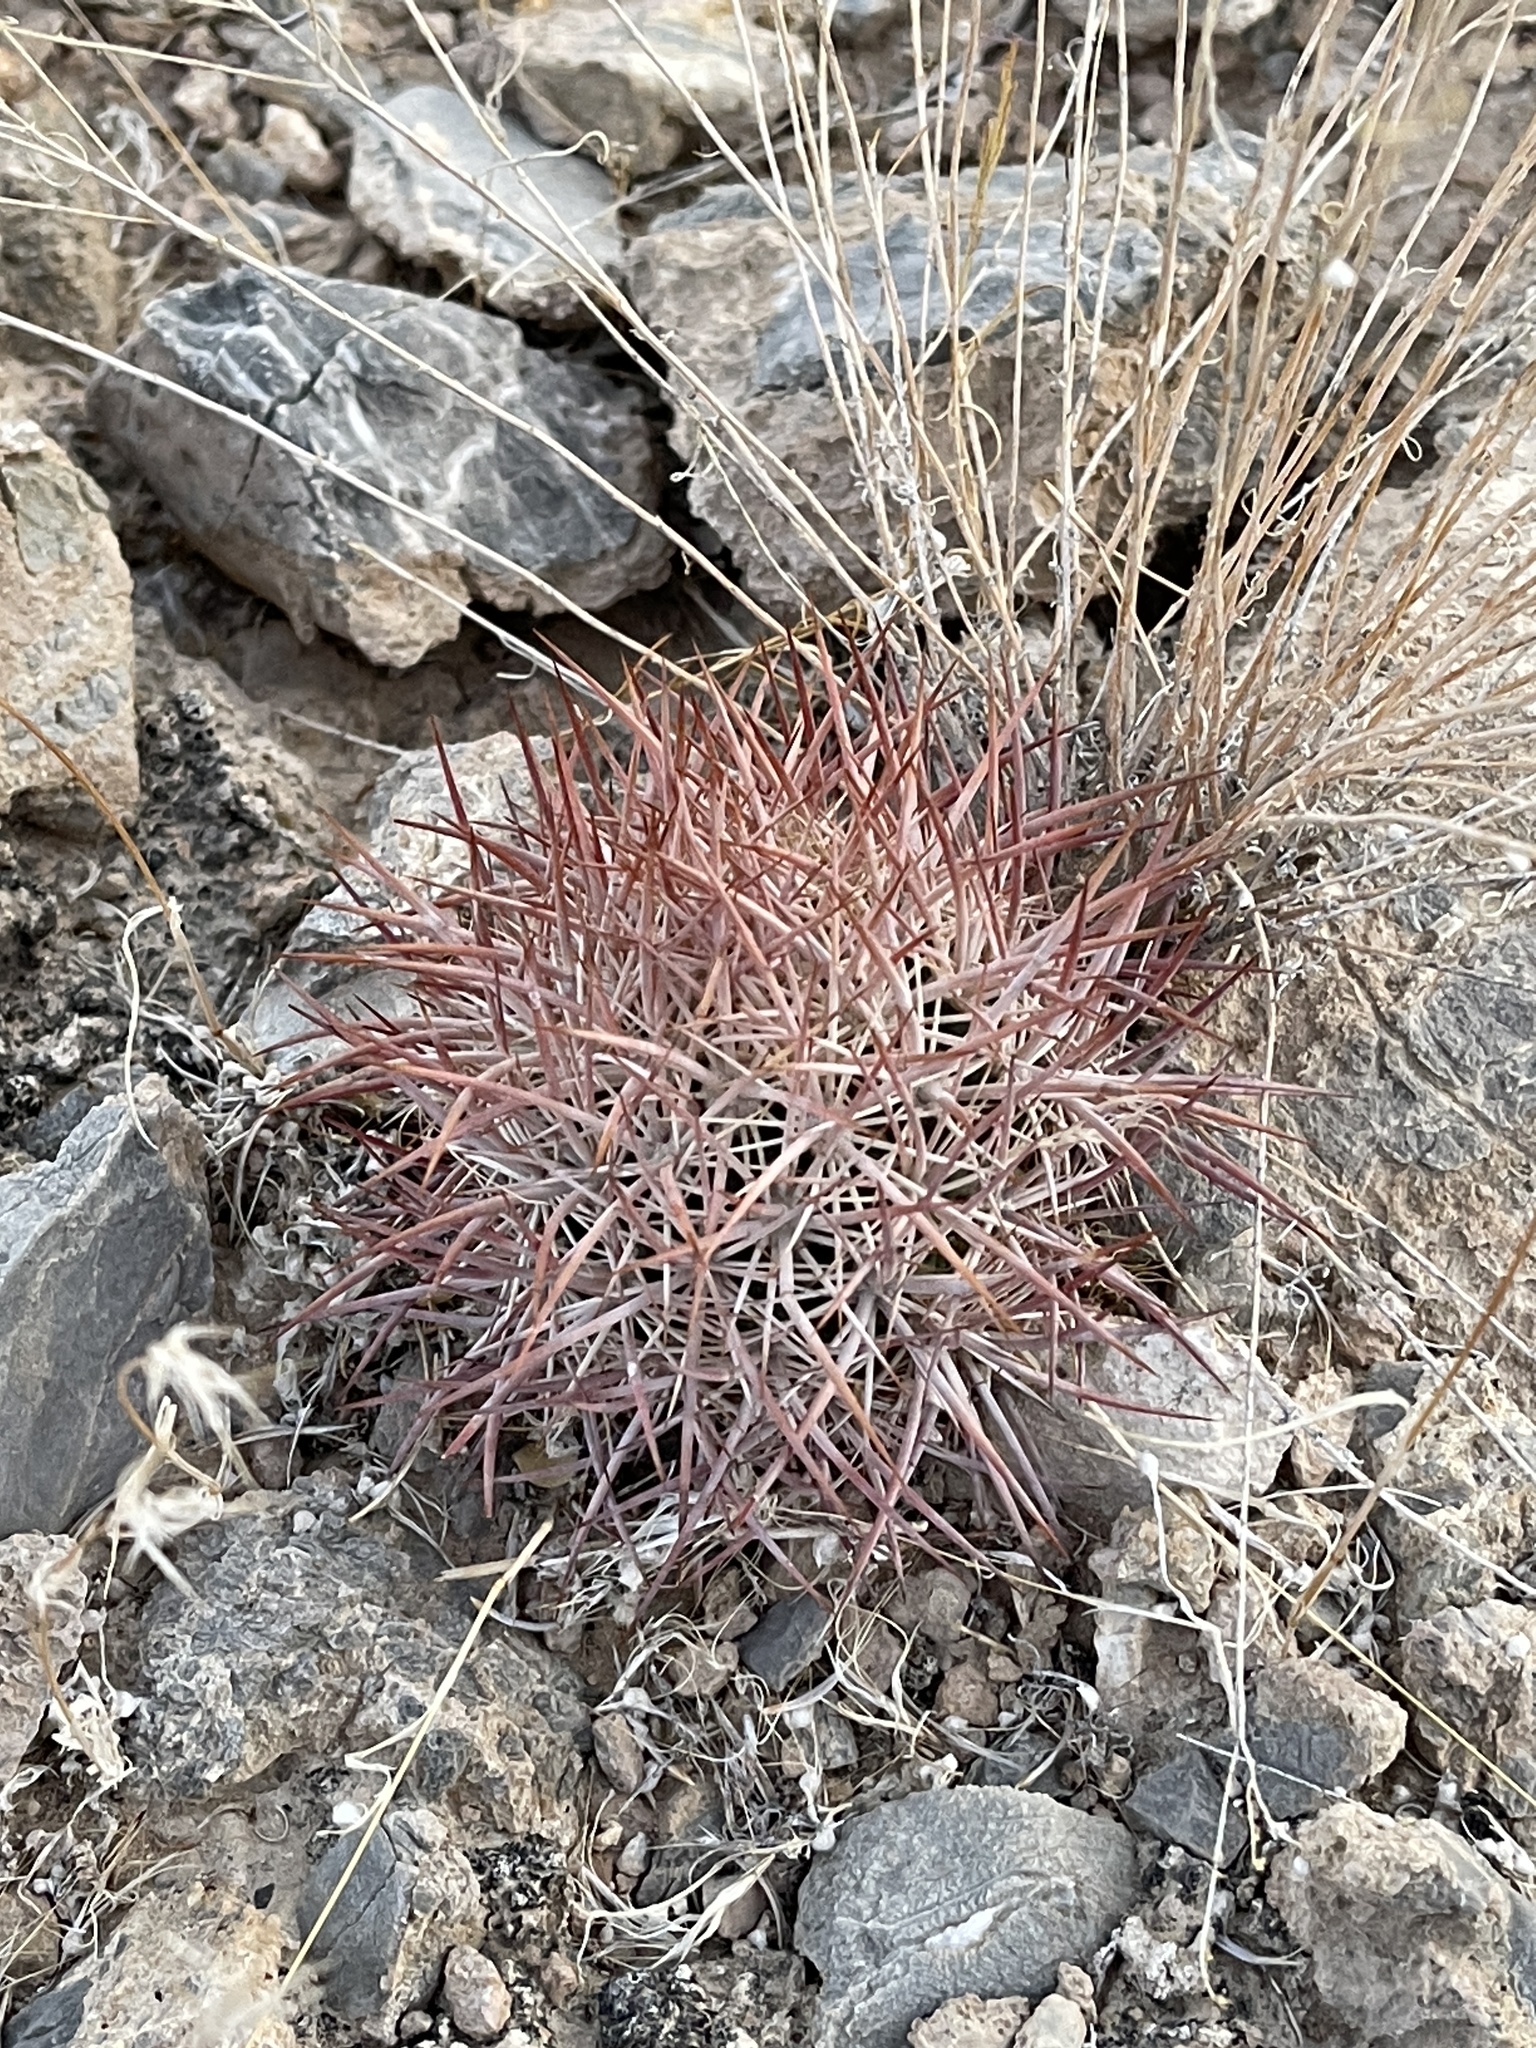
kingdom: Plantae
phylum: Tracheophyta
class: Magnoliopsida
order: Caryophyllales
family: Cactaceae
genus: Sclerocactus
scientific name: Sclerocactus johnsonii
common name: Eight-spine fishhook cactus
